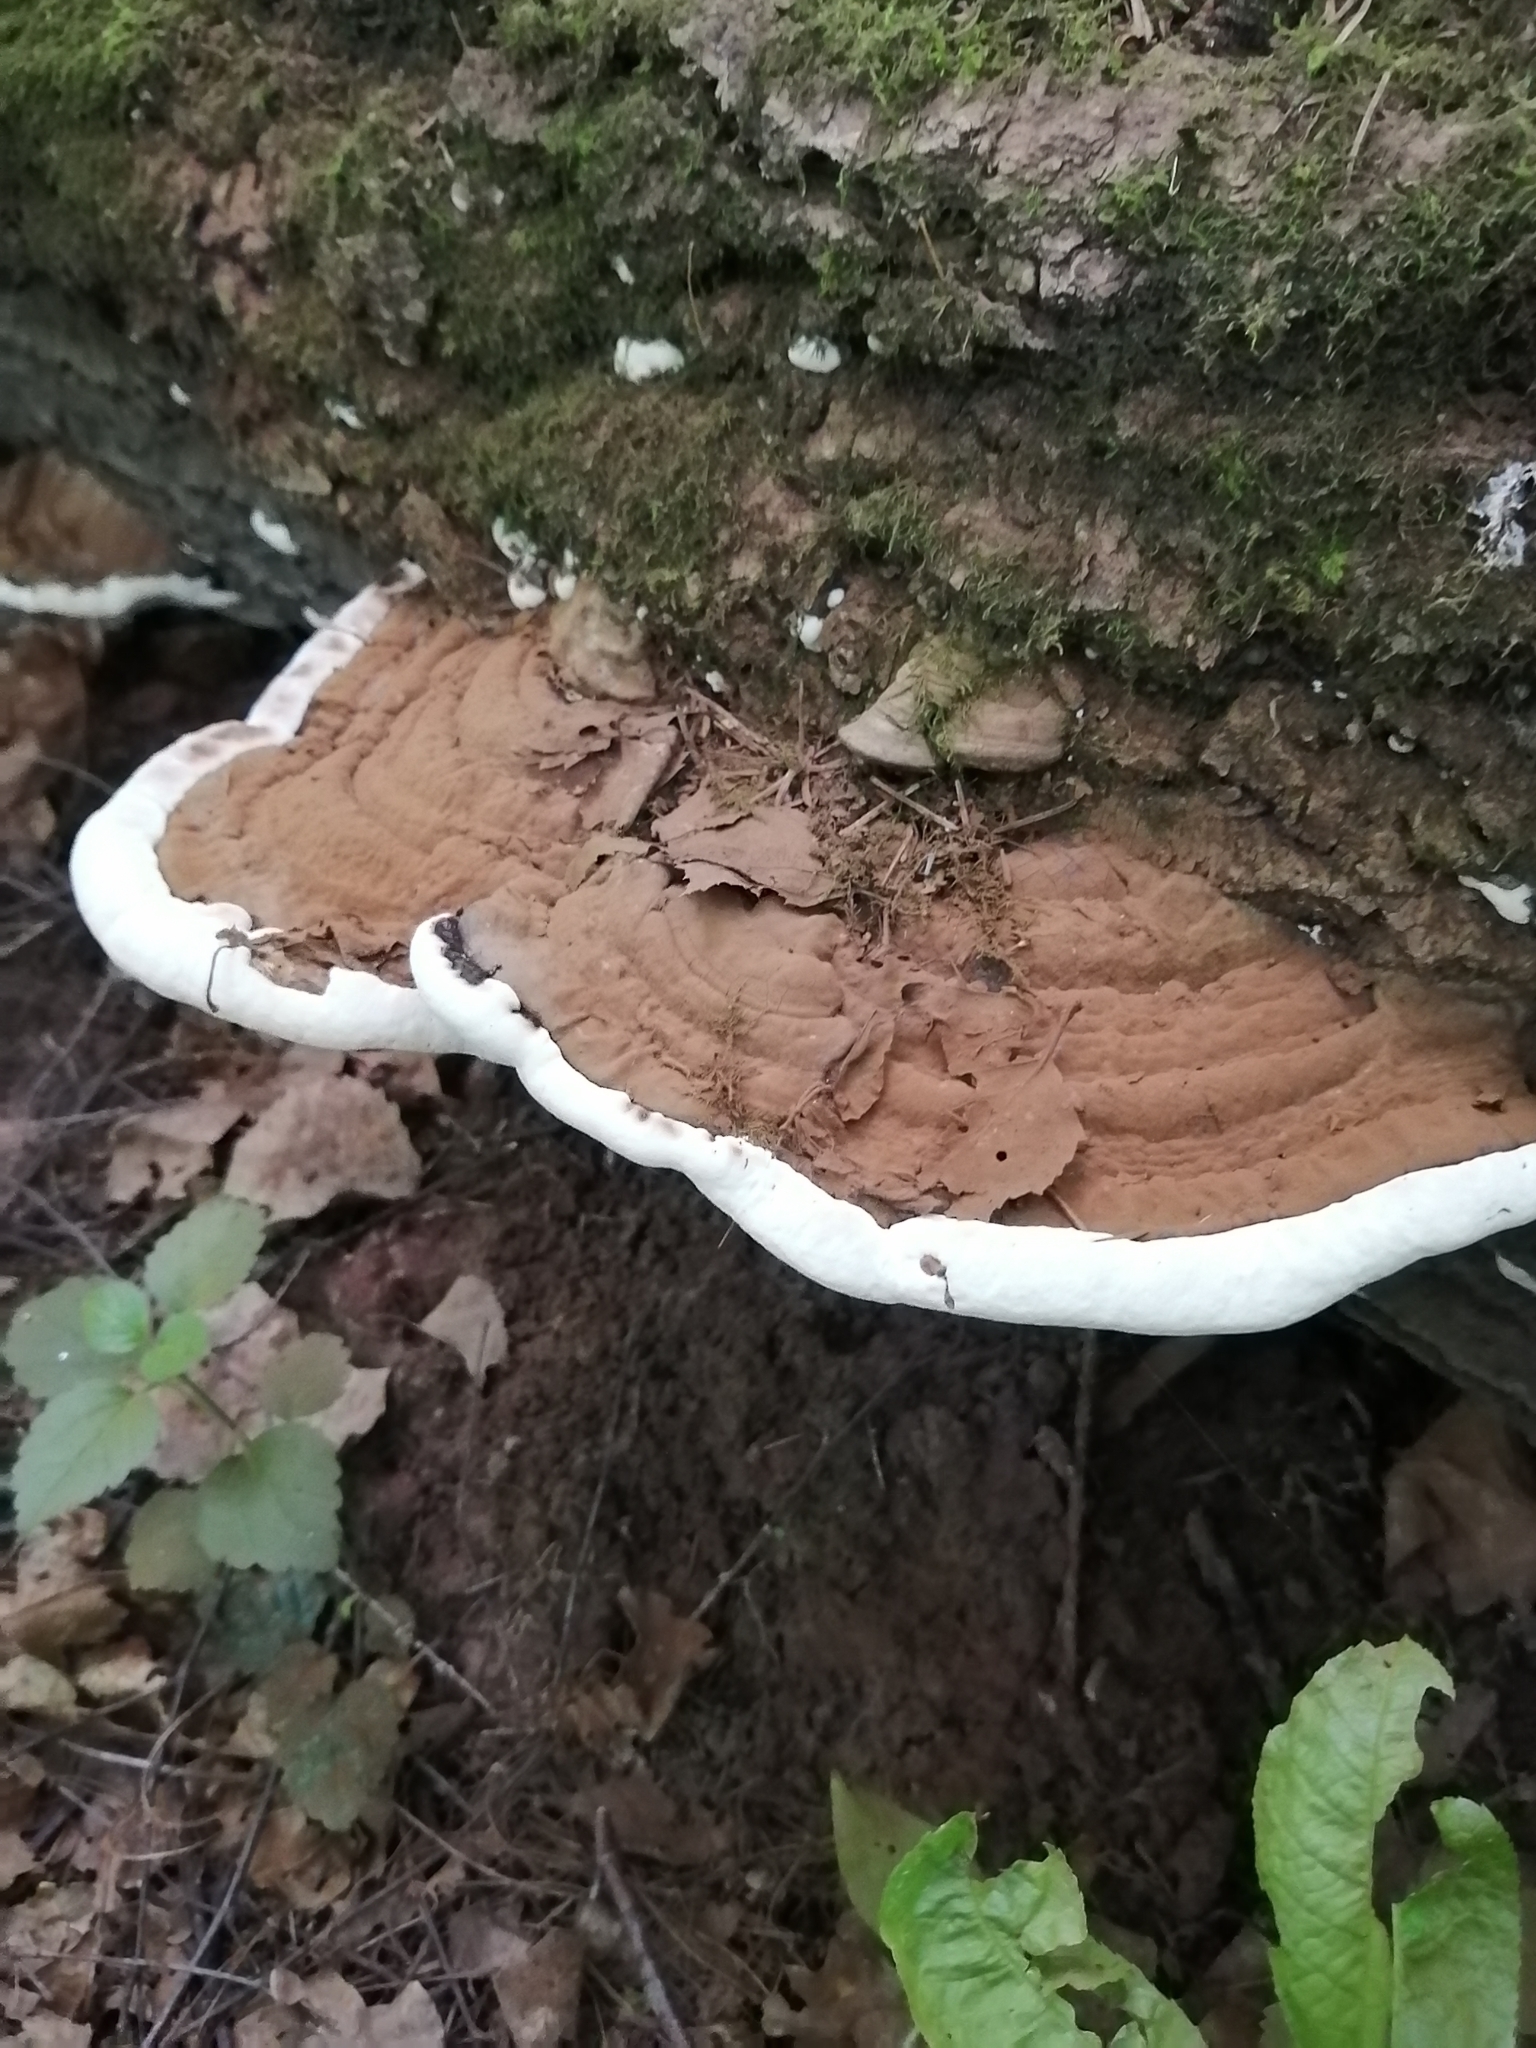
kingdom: Fungi
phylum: Basidiomycota
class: Agaricomycetes
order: Polyporales
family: Polyporaceae
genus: Ganoderma
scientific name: Ganoderma applanatum
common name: Artist's bracket
